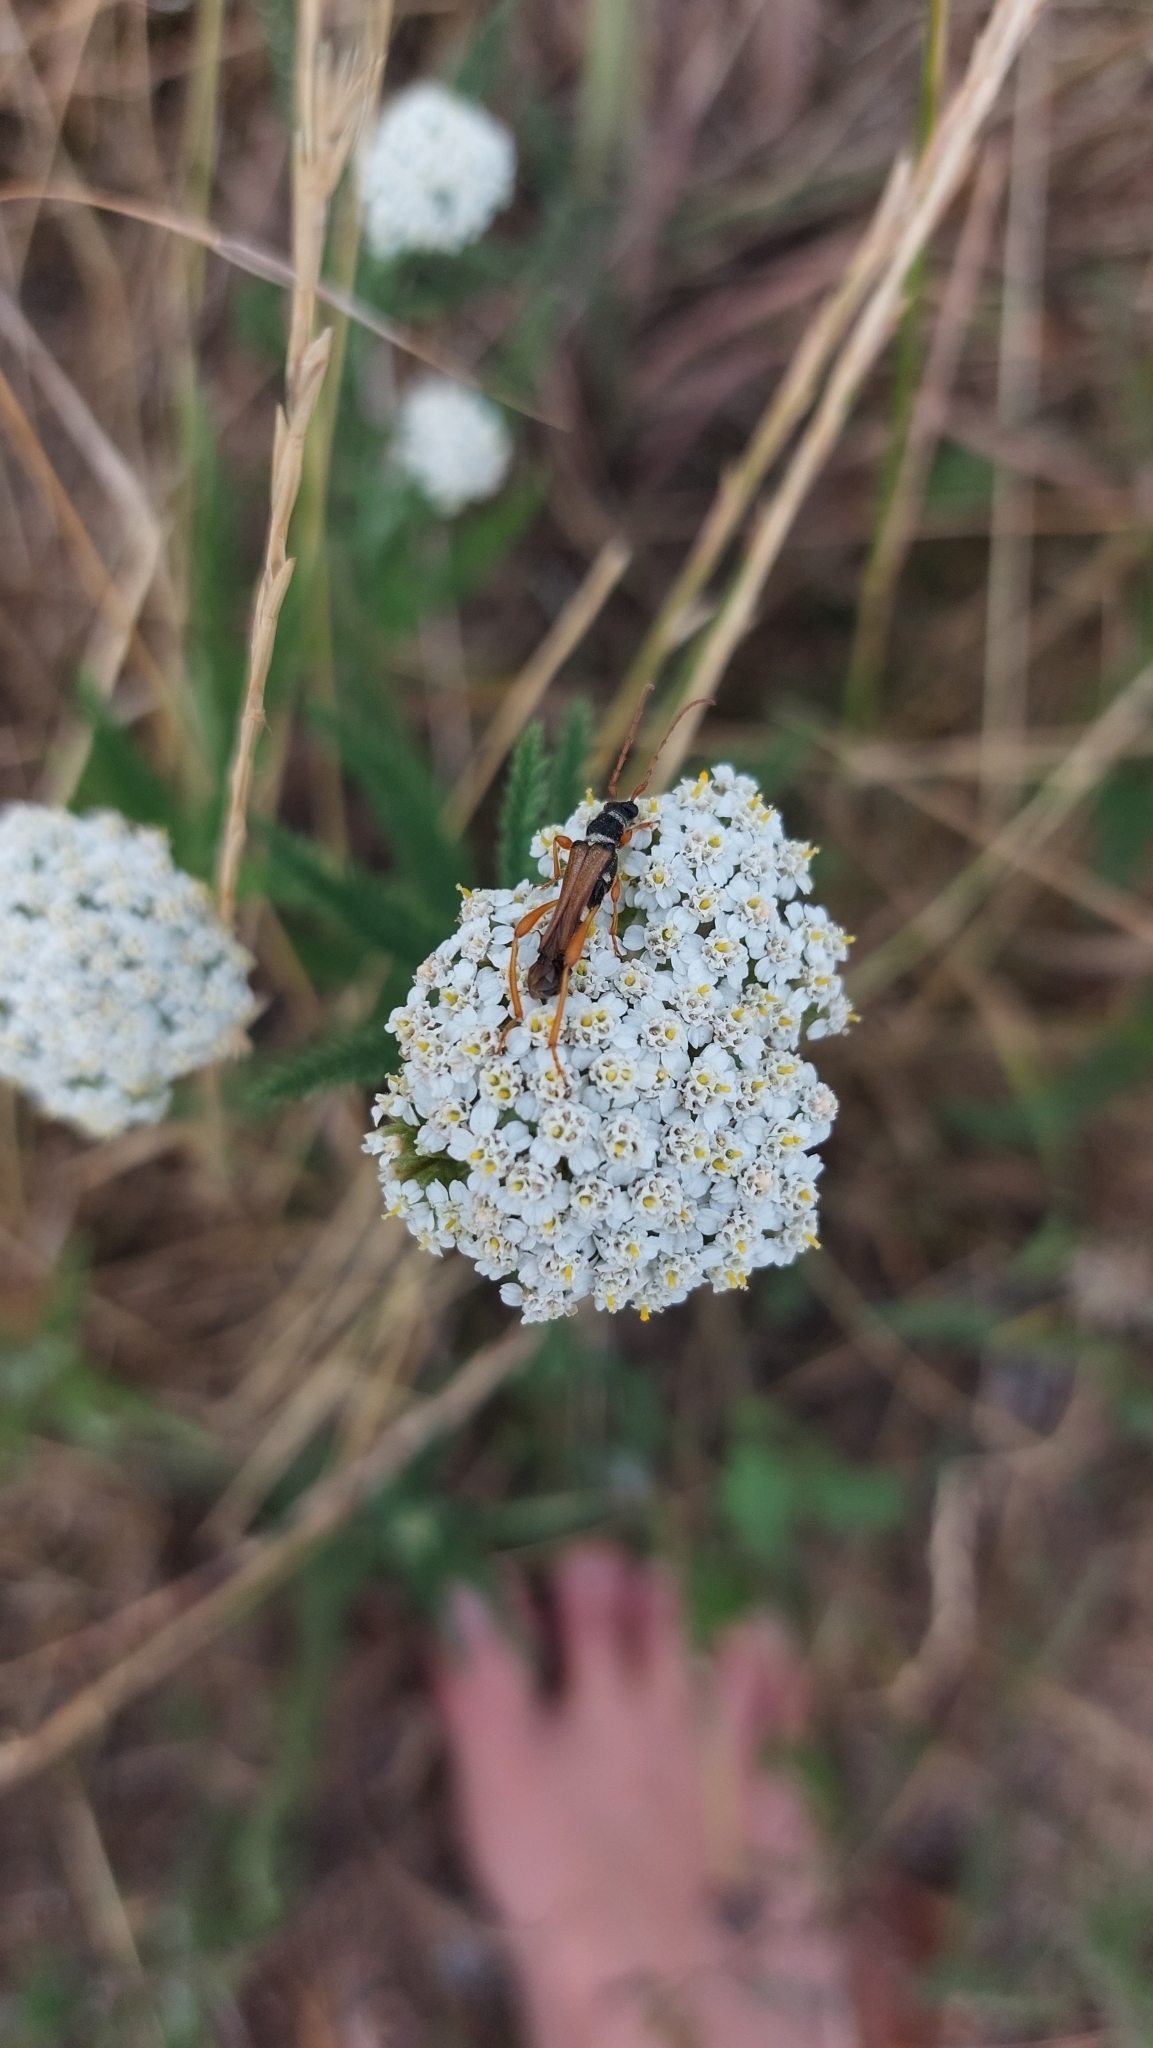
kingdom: Animalia
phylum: Arthropoda
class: Insecta
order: Coleoptera
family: Cerambycidae
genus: Stenopterus
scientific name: Stenopterus flavicornis
